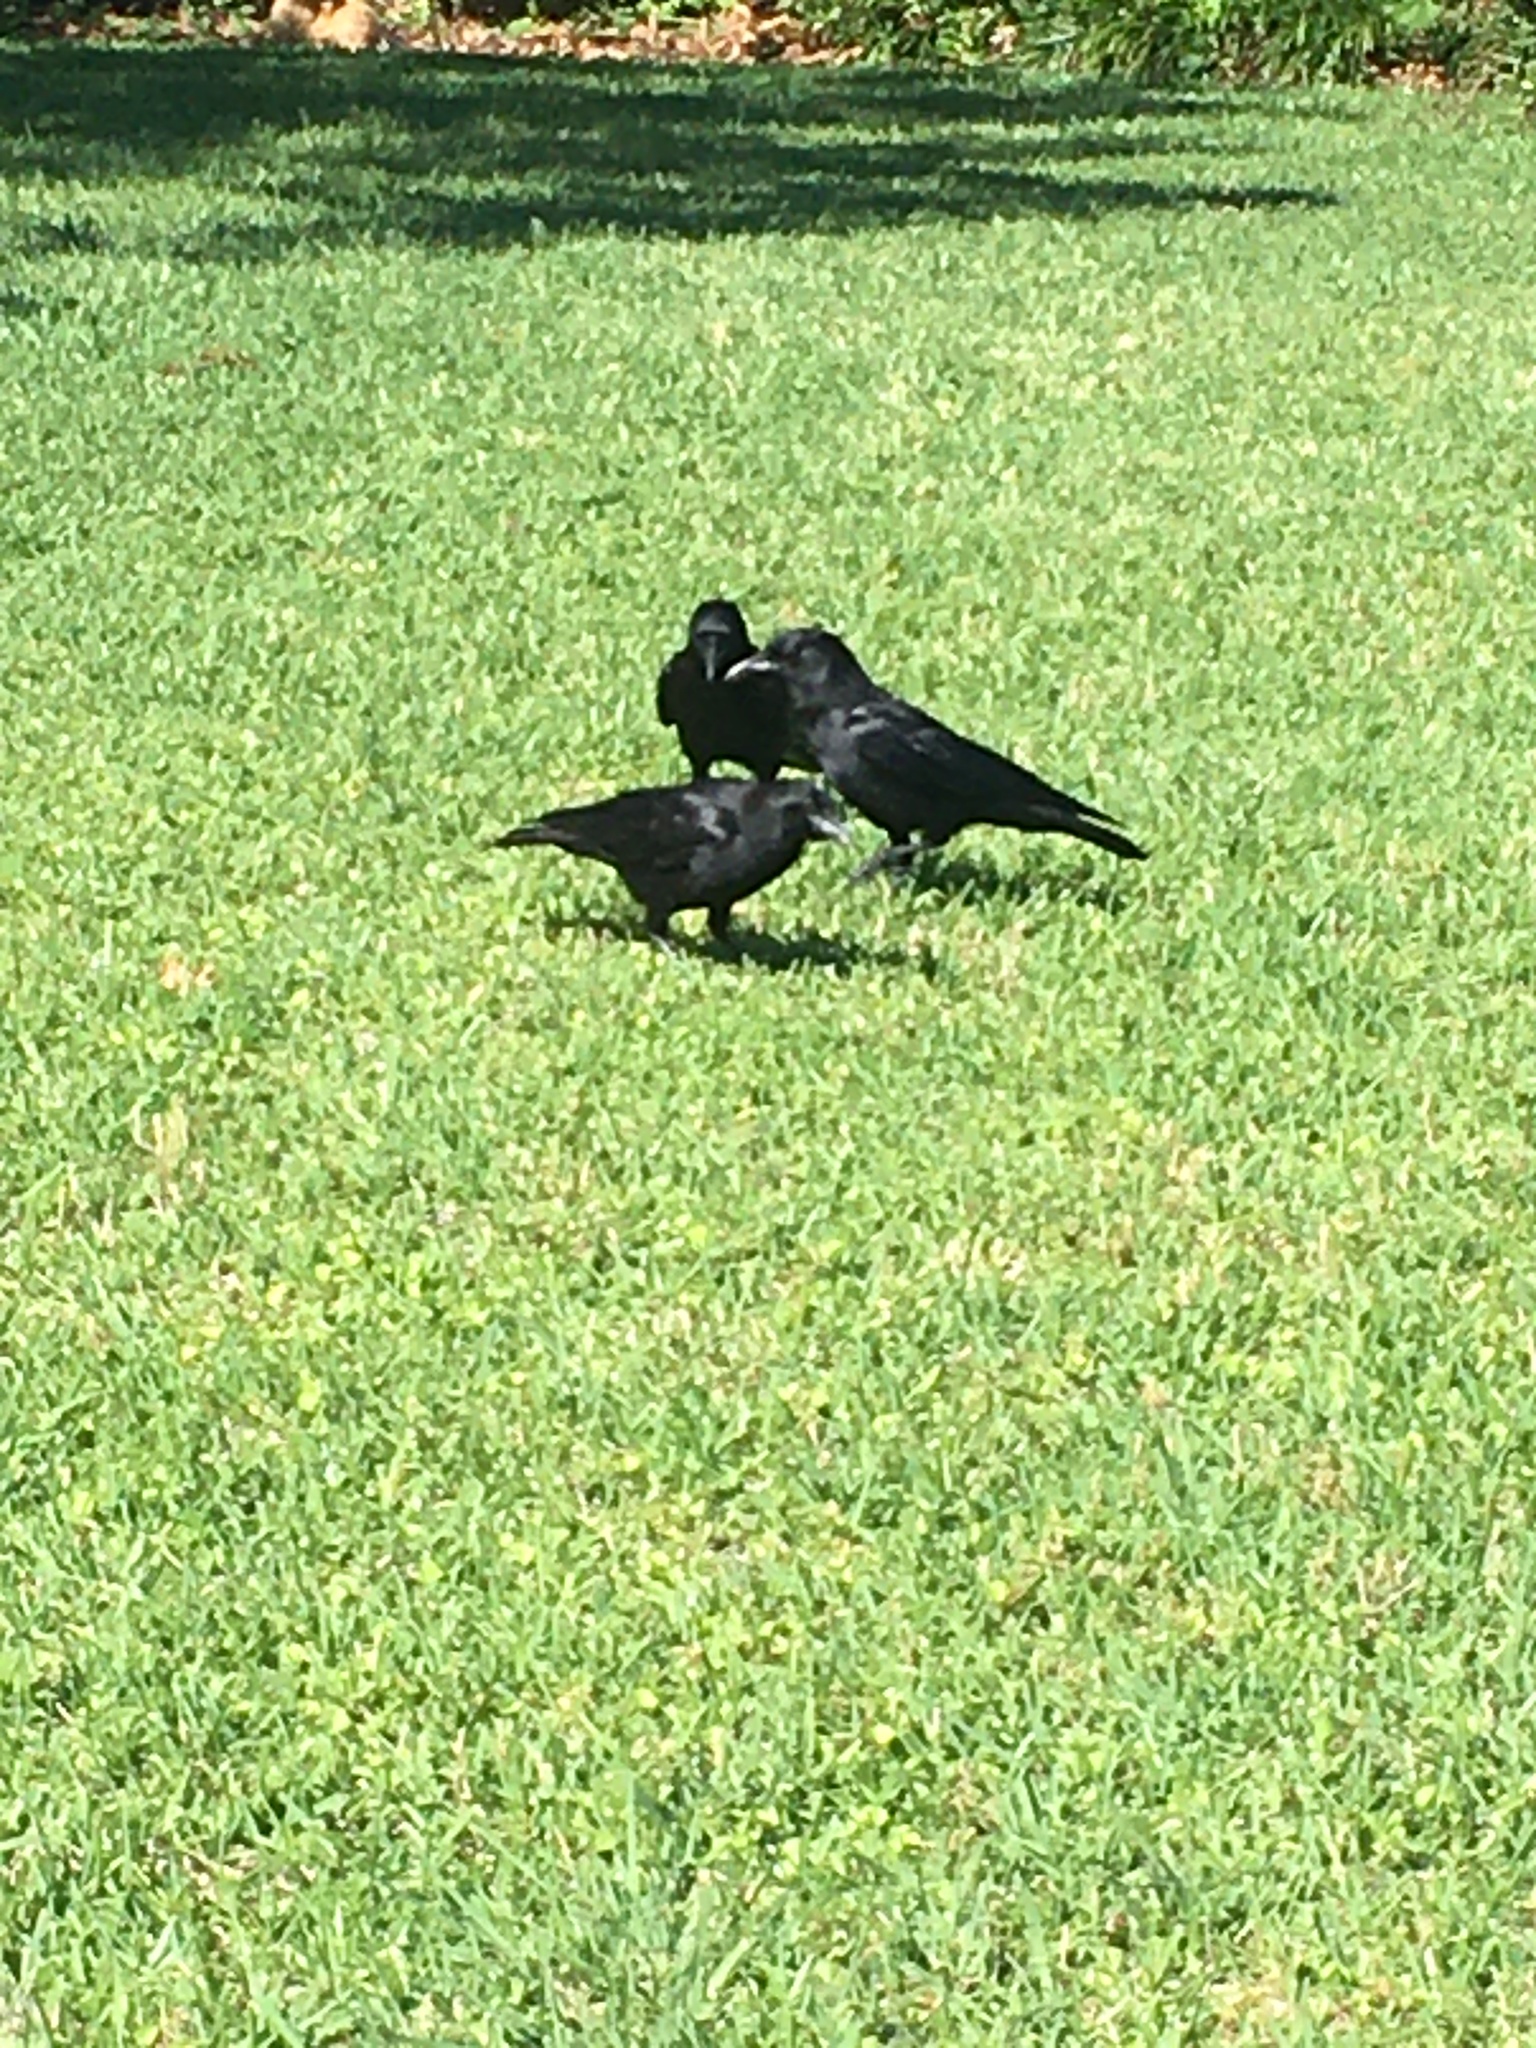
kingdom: Animalia
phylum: Chordata
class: Aves
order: Passeriformes
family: Corvidae
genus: Corvus
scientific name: Corvus brachyrhynchos
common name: American crow
